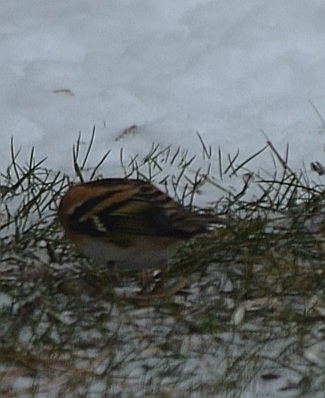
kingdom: Animalia
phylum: Chordata
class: Aves
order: Passeriformes
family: Fringillidae
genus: Fringilla
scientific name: Fringilla montifringilla
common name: Brambling
